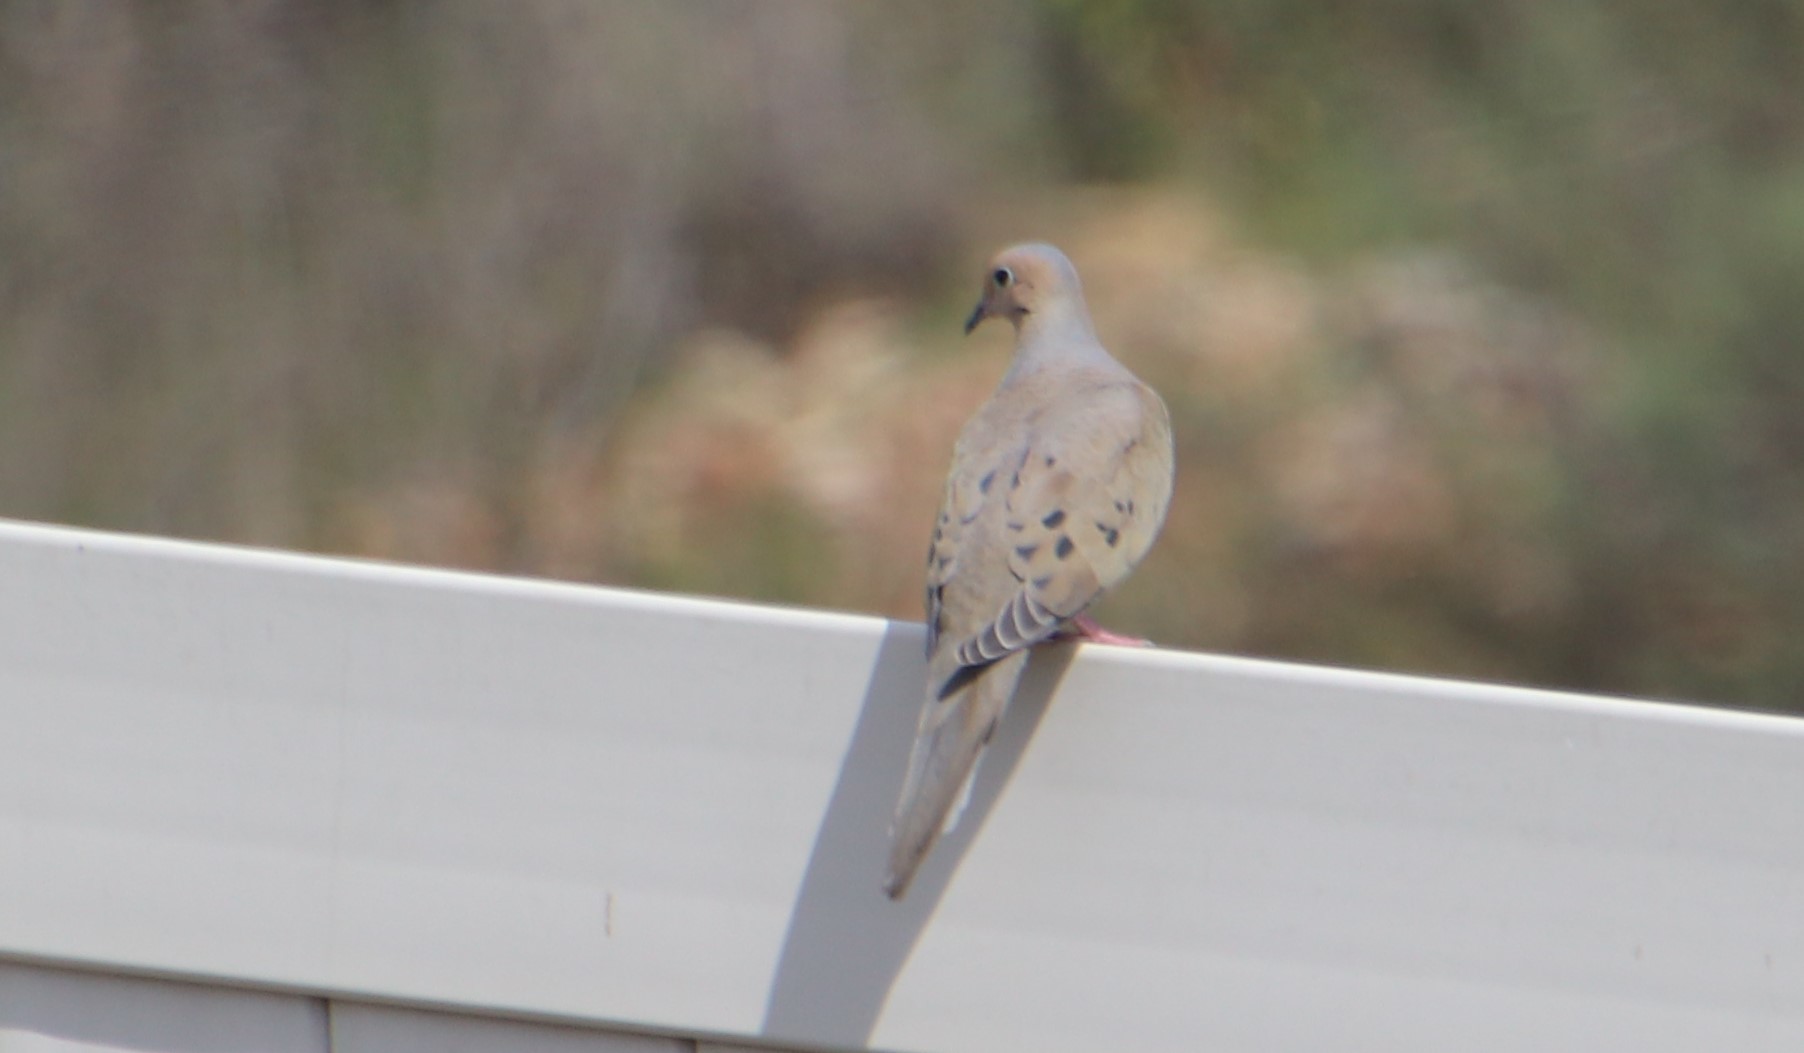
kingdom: Animalia
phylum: Chordata
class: Aves
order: Columbiformes
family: Columbidae
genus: Zenaida
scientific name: Zenaida macroura
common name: Mourning dove
